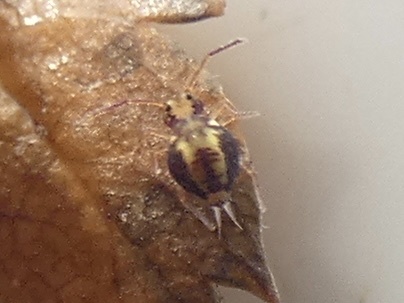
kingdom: Animalia
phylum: Arthropoda
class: Collembola
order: Symphypleona
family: Dicyrtomidae
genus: Dicyrtomina
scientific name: Dicyrtomina saundersi
